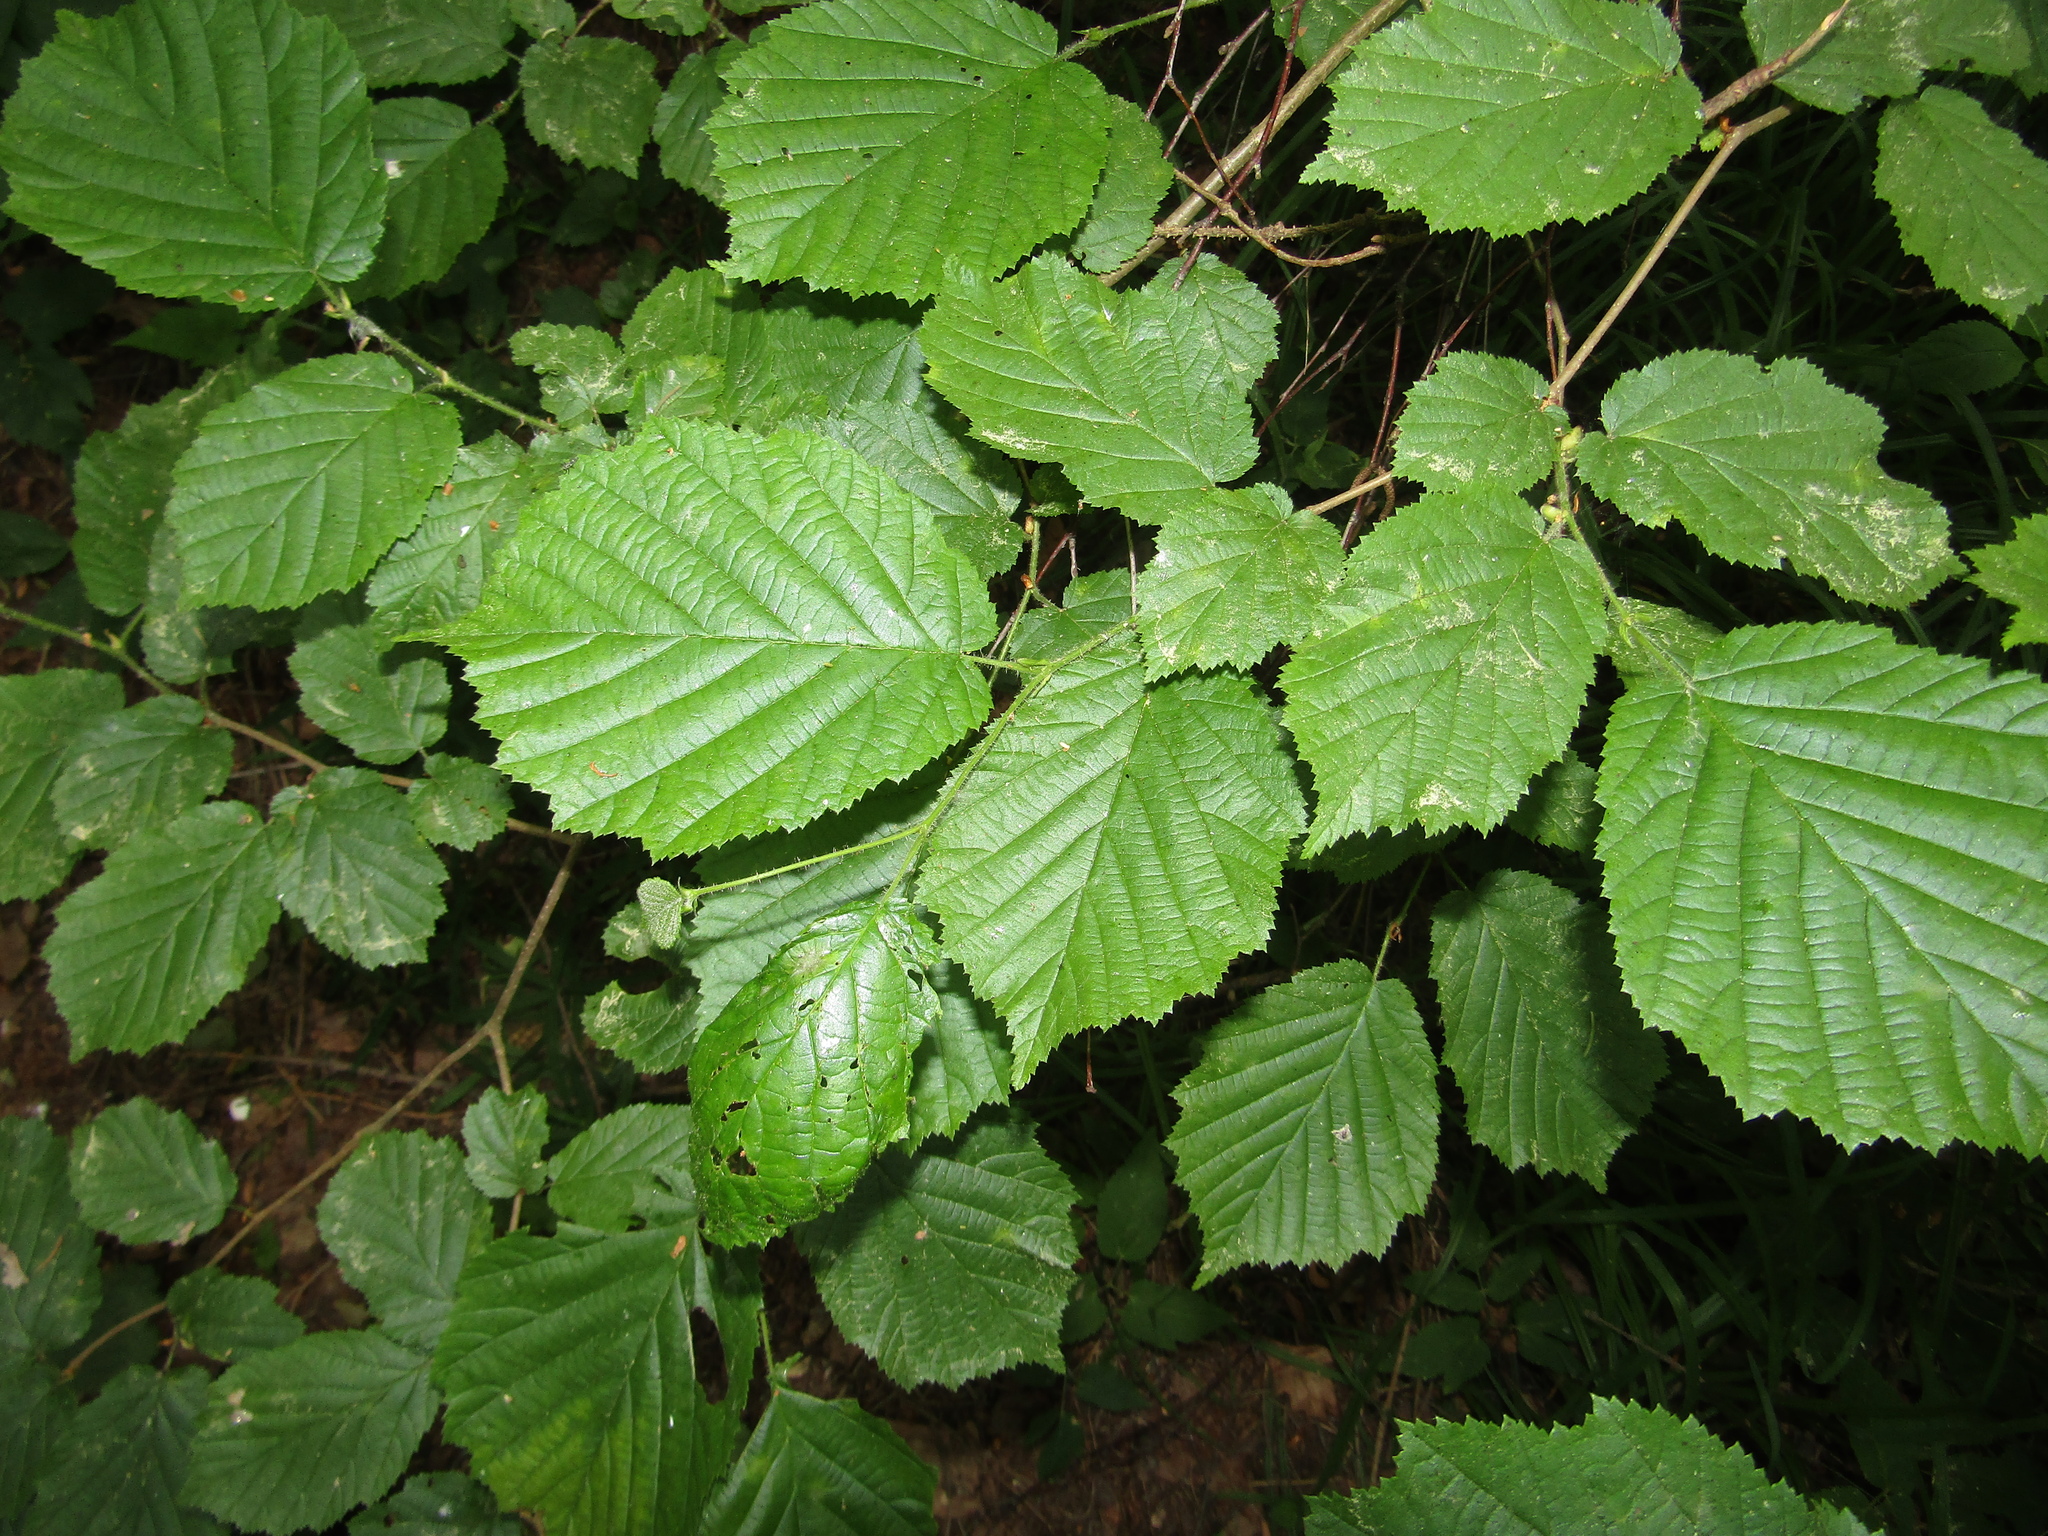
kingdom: Plantae
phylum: Tracheophyta
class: Magnoliopsida
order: Fagales
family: Betulaceae
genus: Corylus
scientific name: Corylus avellana
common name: European hazel
